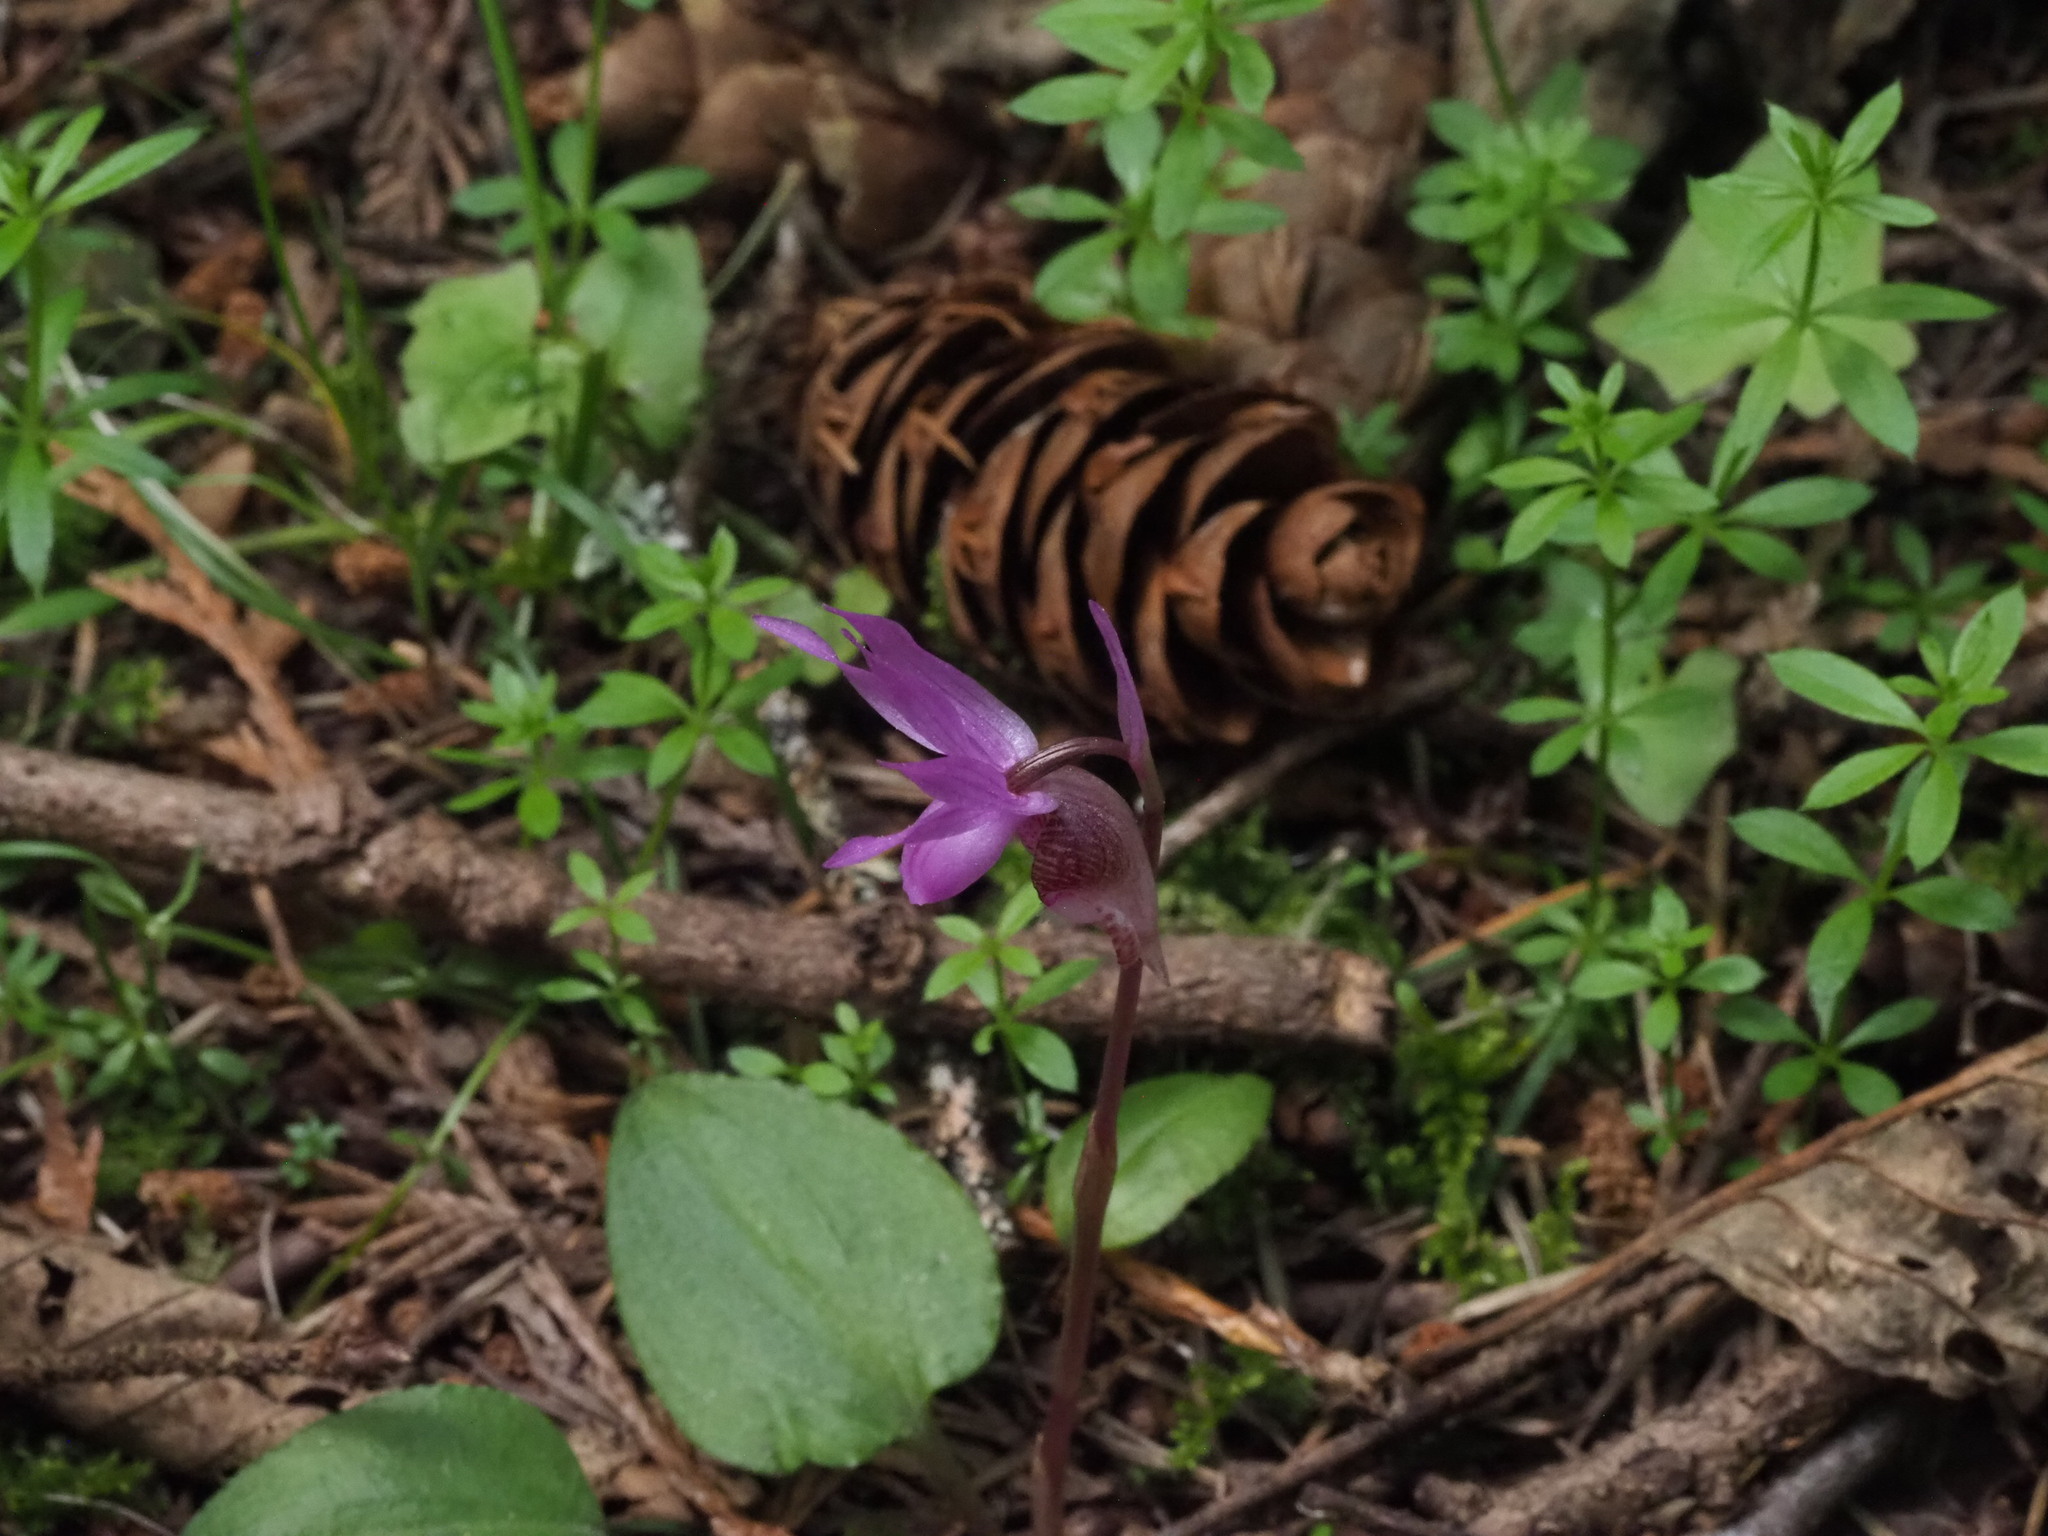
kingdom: Plantae
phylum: Tracheophyta
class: Liliopsida
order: Asparagales
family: Orchidaceae
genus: Calypso
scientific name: Calypso bulbosa
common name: Calypso
